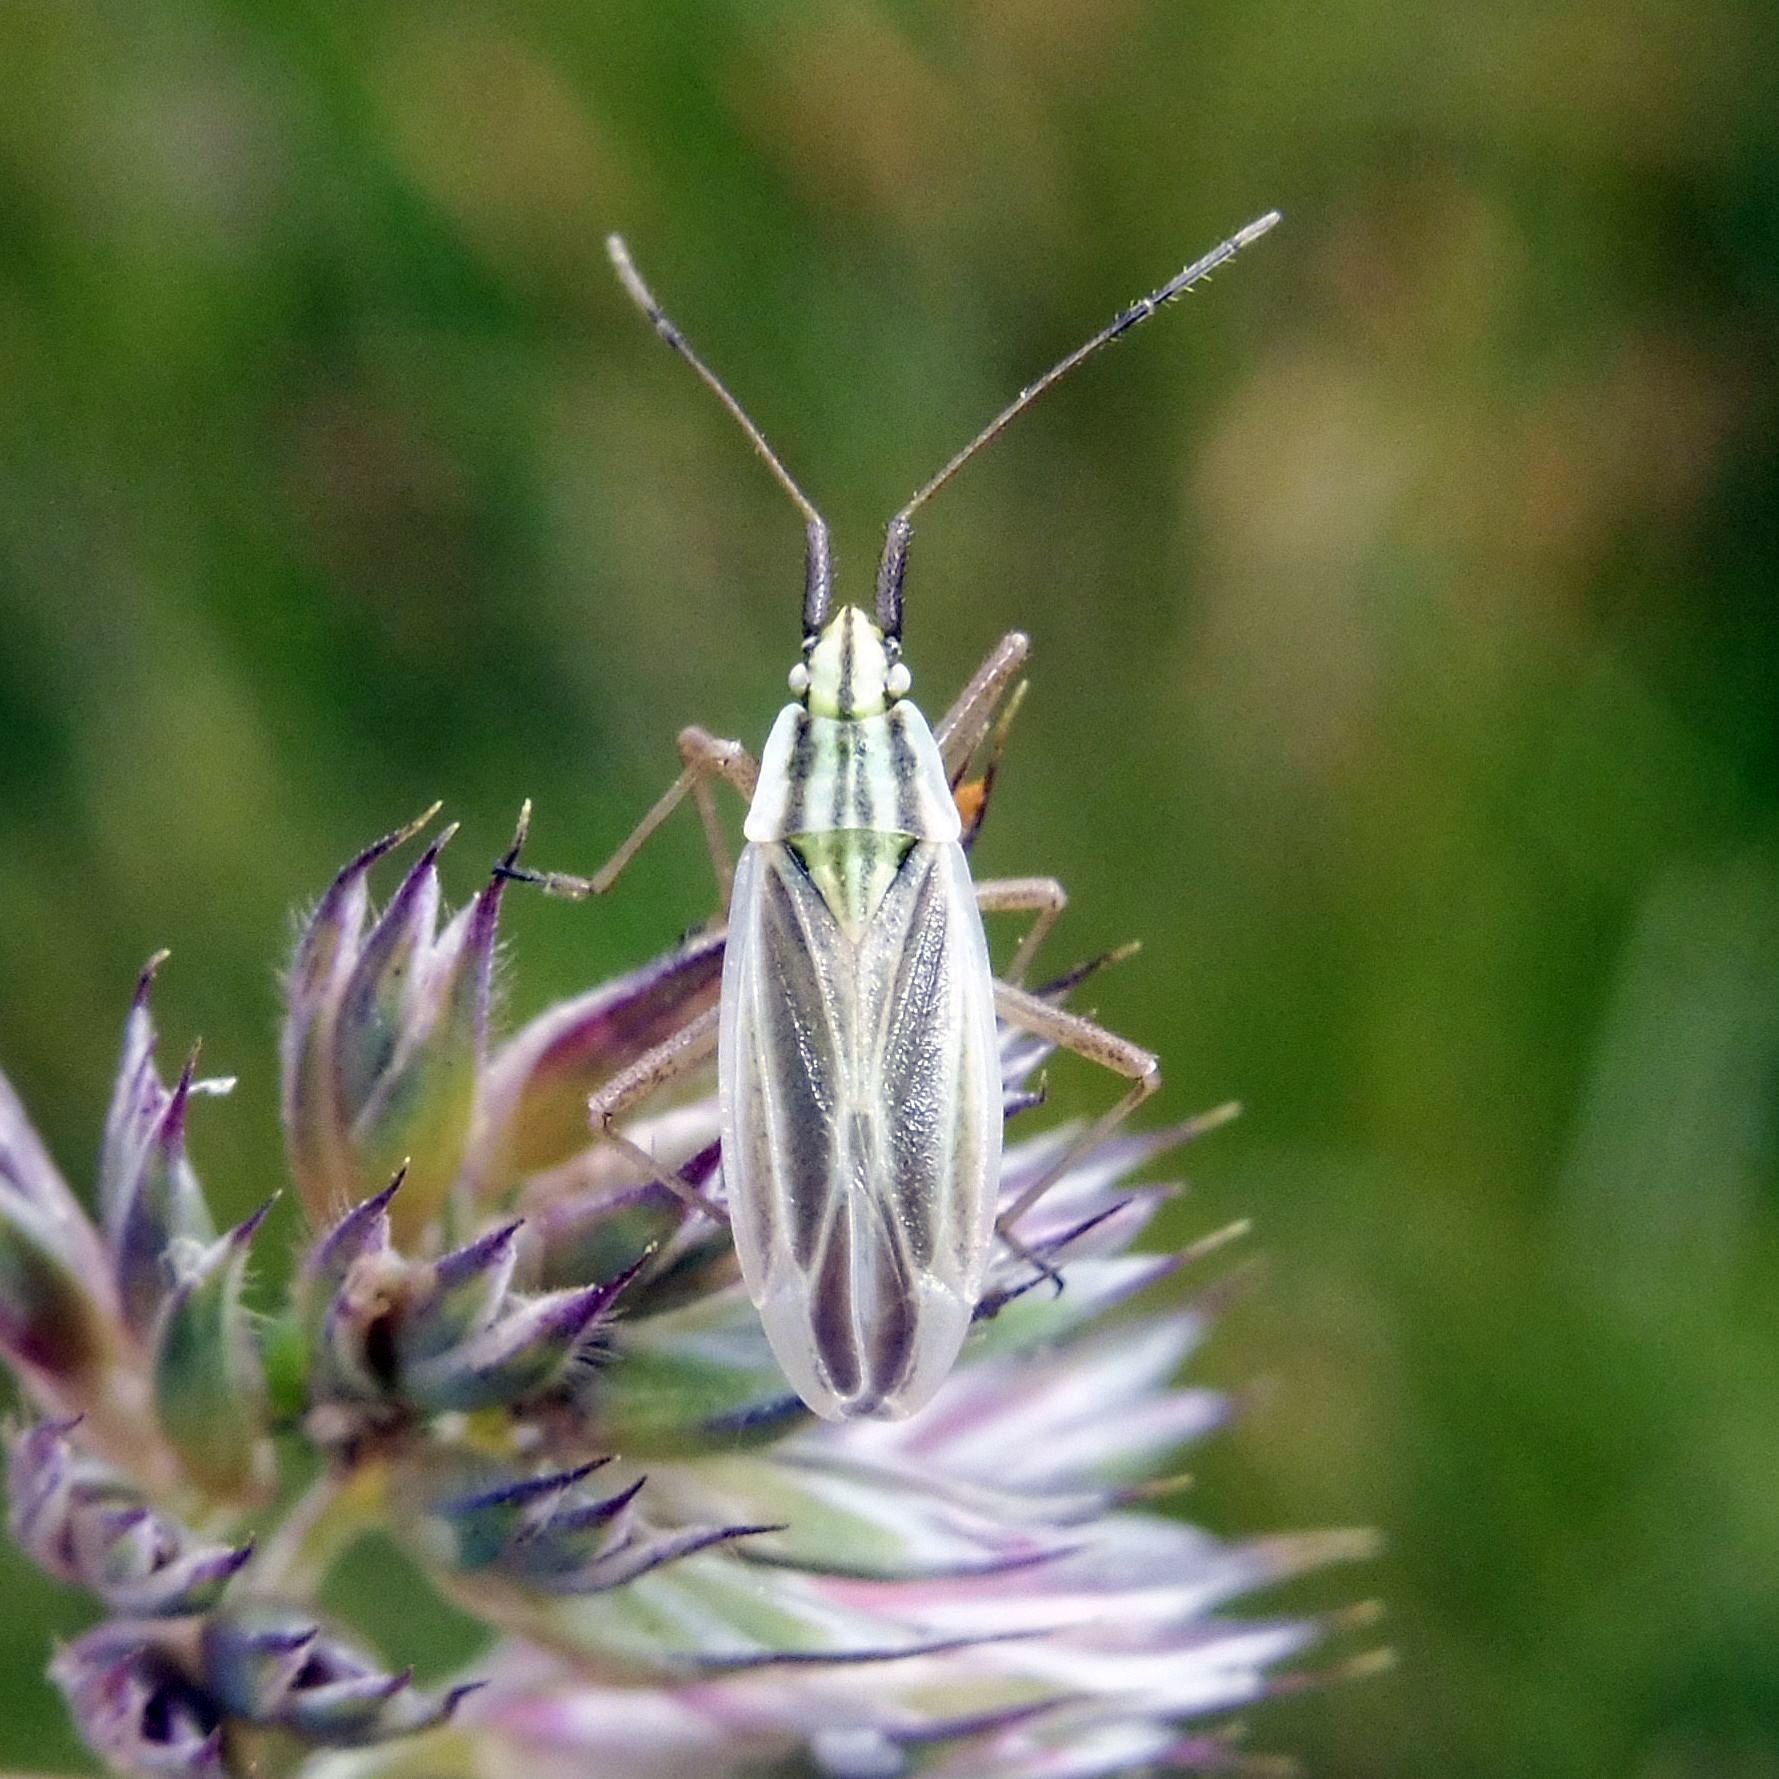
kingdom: Animalia
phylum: Arthropoda
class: Insecta
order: Hemiptera
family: Miridae
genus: Acetropis
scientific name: Acetropis gimmerthalii
